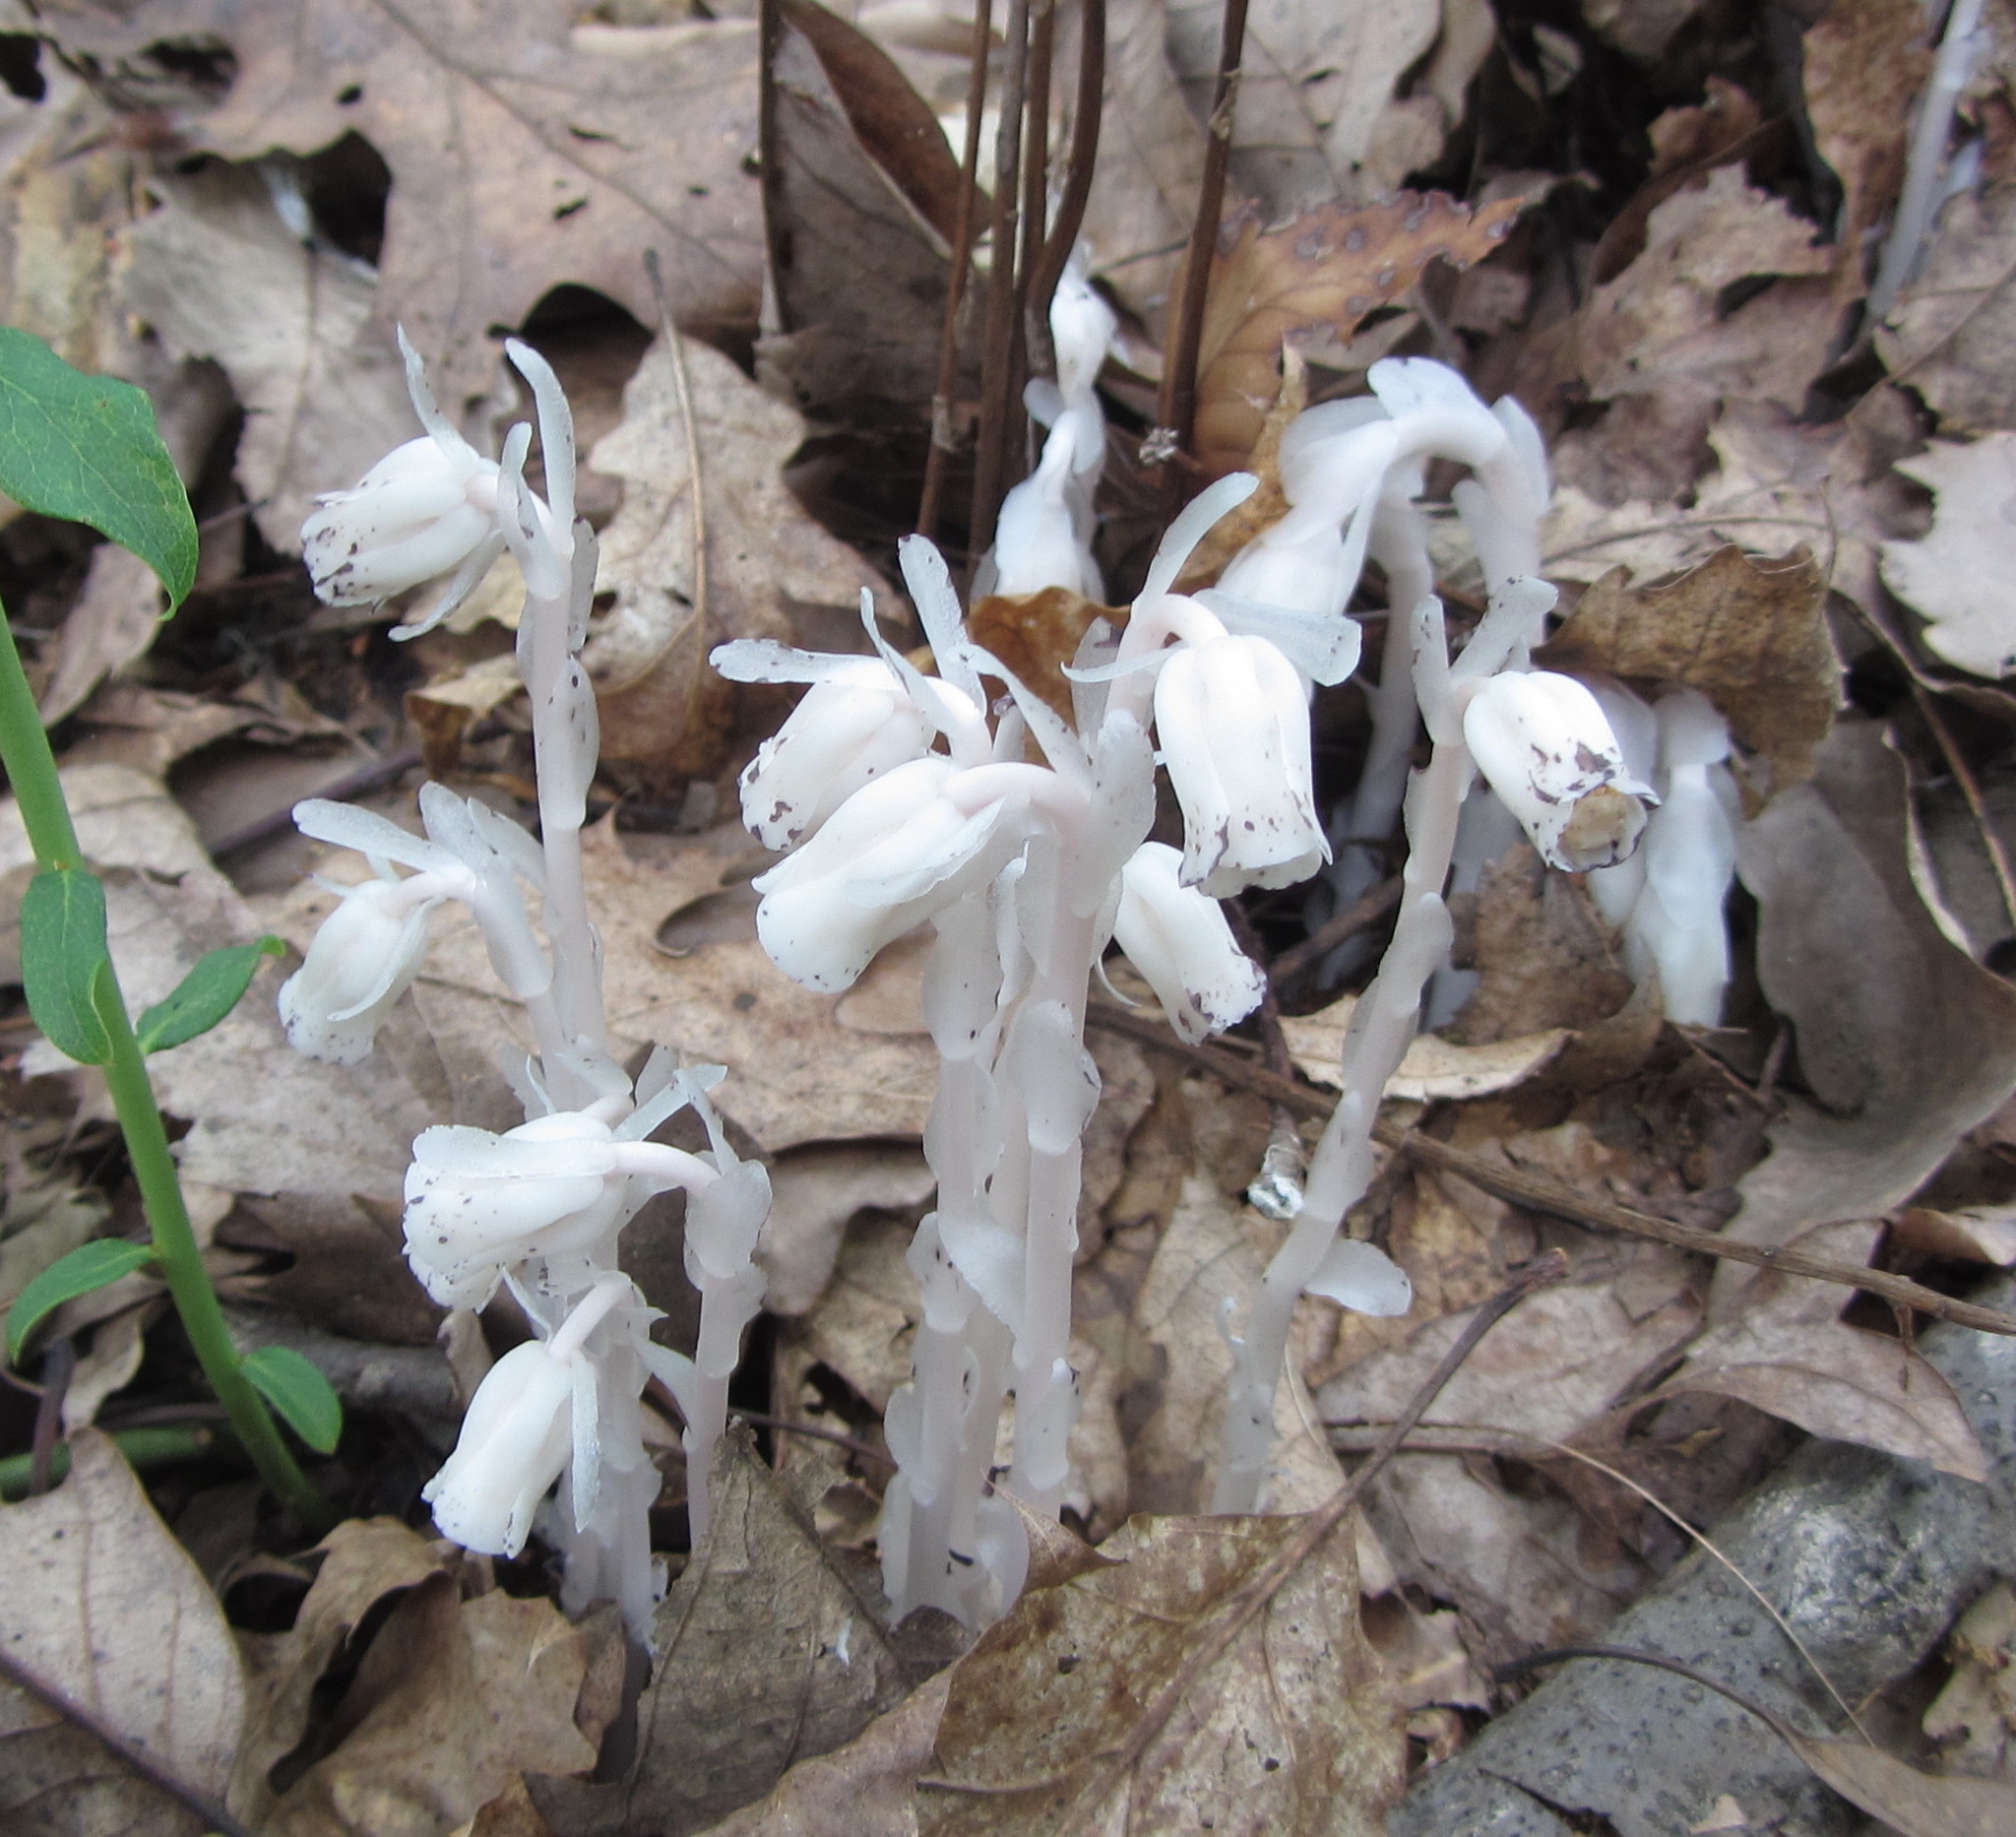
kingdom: Plantae
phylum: Tracheophyta
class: Magnoliopsida
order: Ericales
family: Ericaceae
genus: Monotropa
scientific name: Monotropa uniflora
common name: Convulsion root
